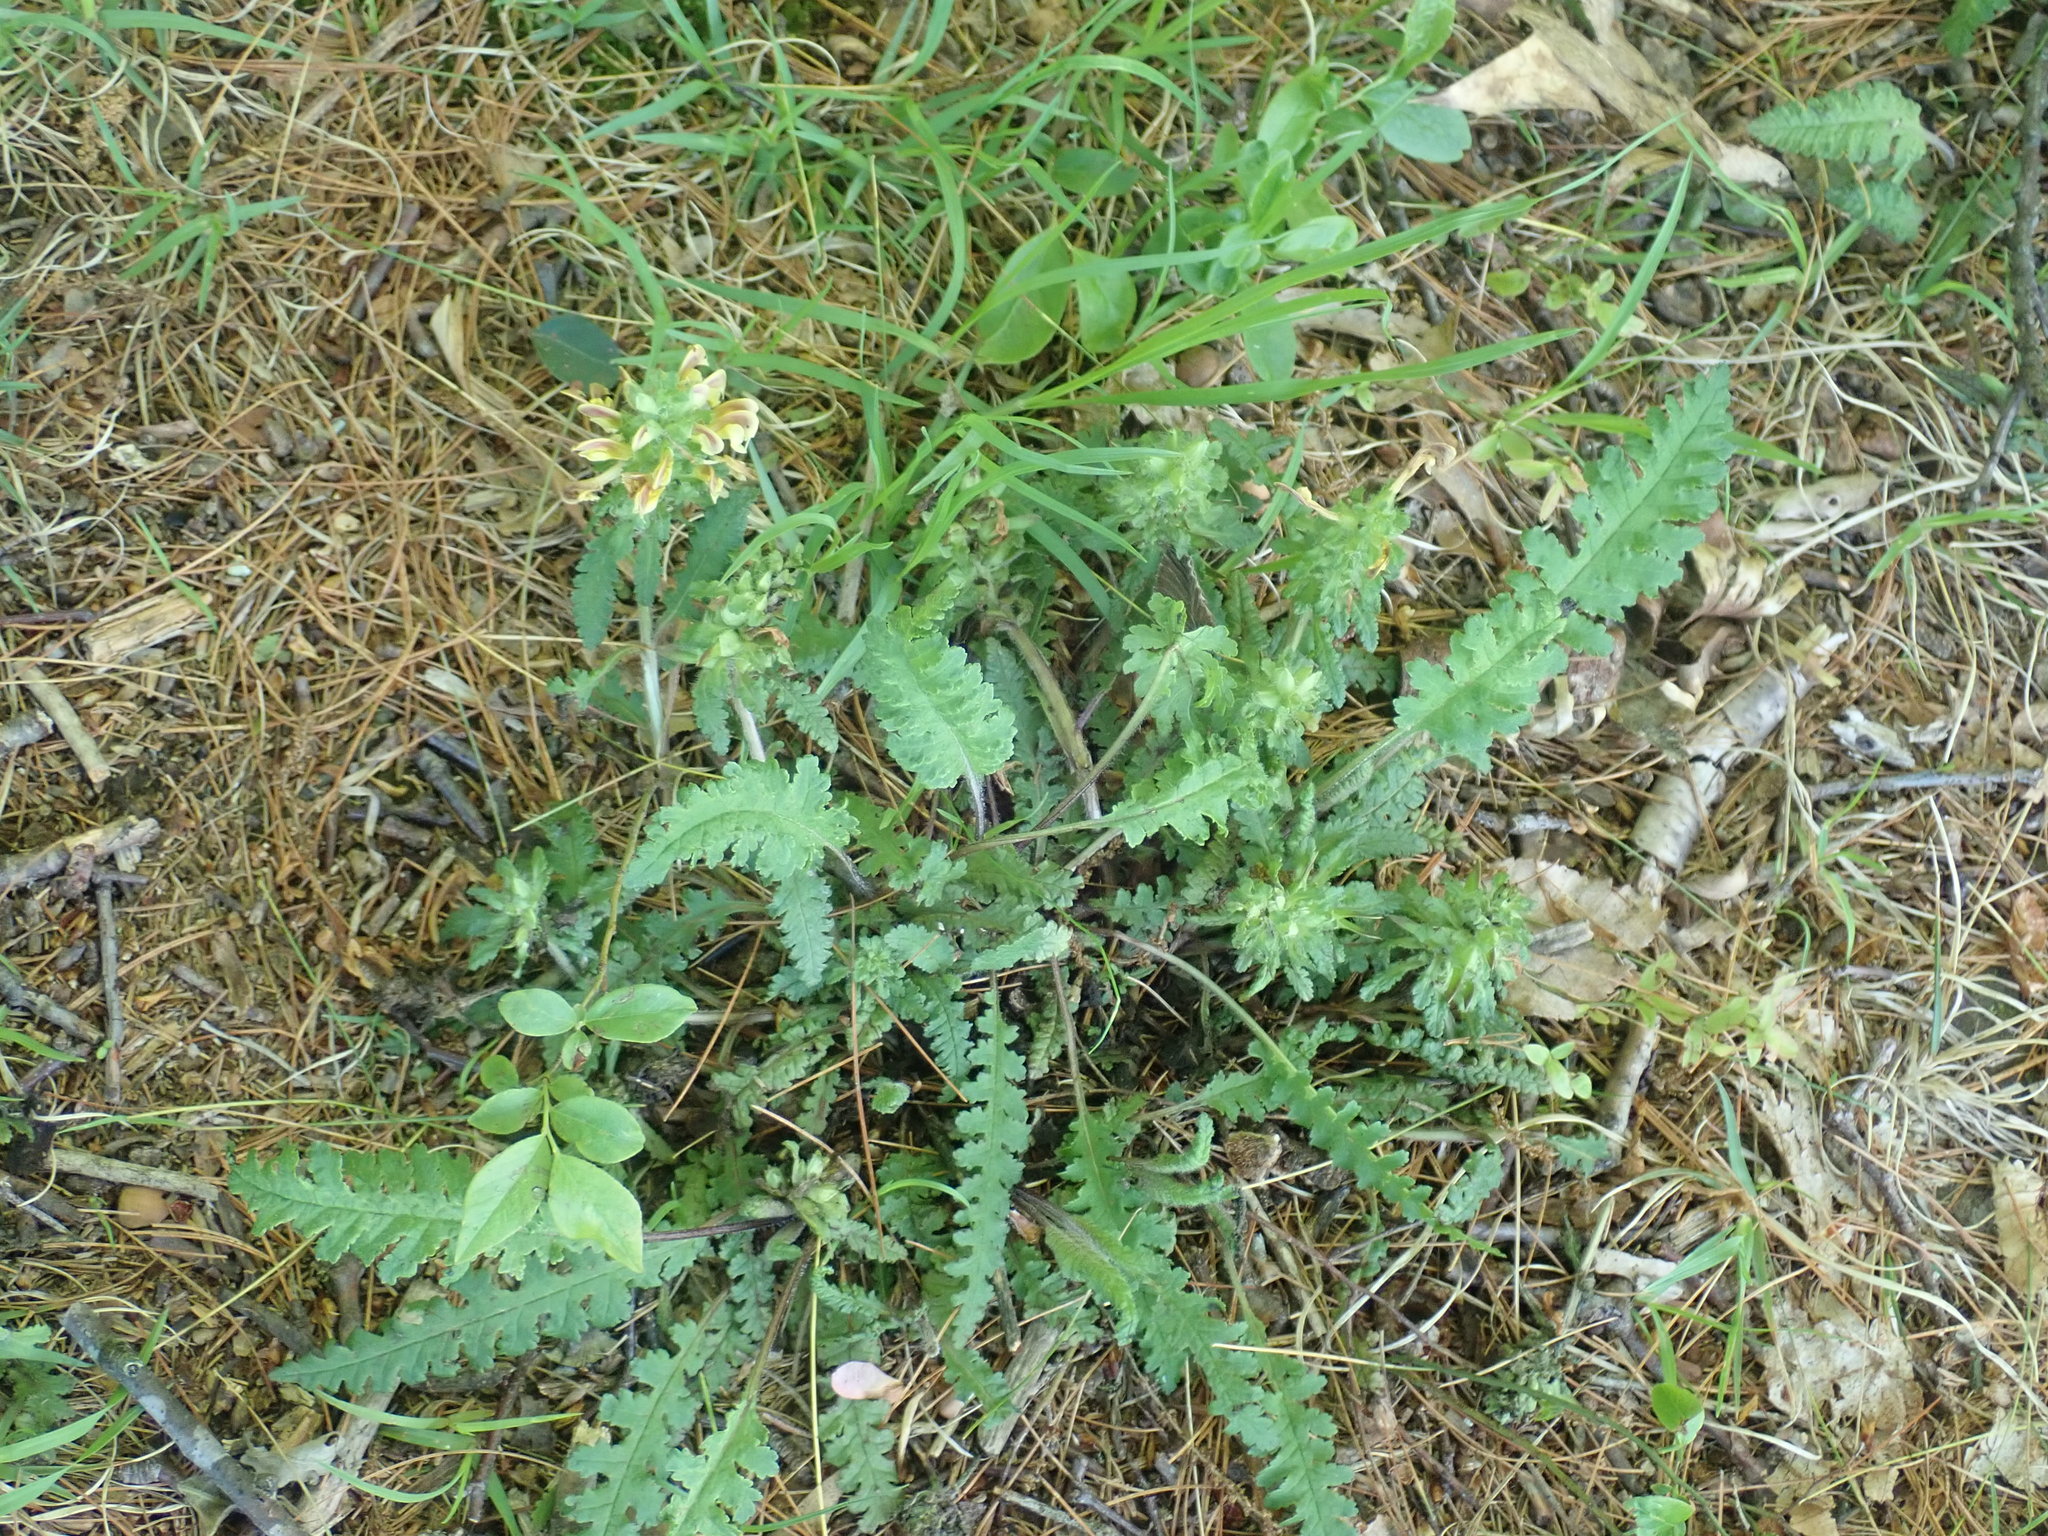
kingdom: Plantae
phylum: Tracheophyta
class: Magnoliopsida
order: Lamiales
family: Orobanchaceae
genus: Pedicularis
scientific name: Pedicularis canadensis
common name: Early lousewort
